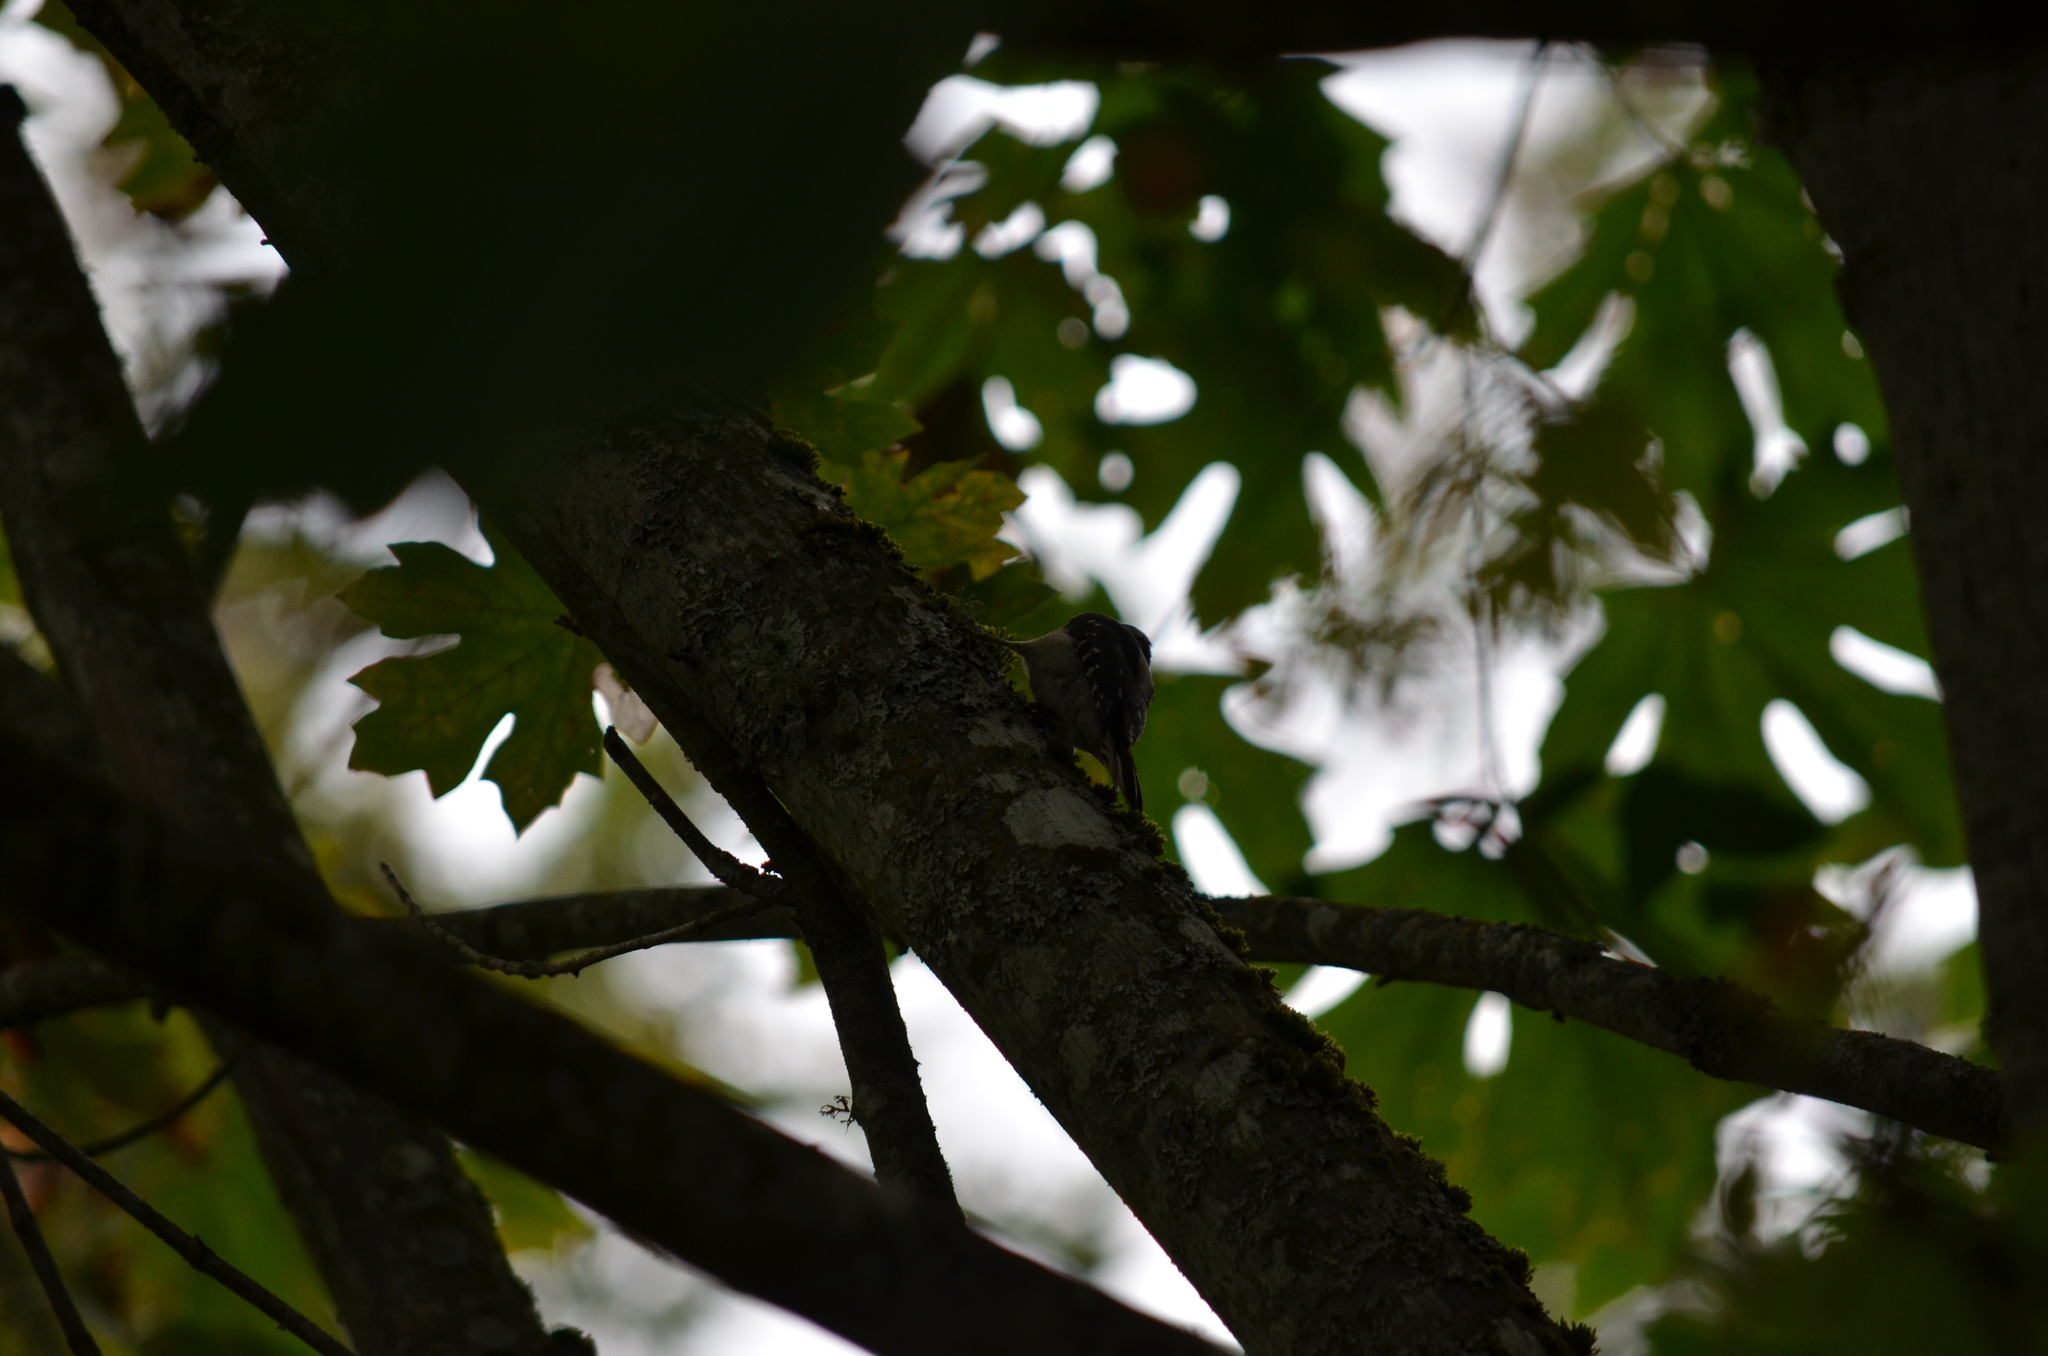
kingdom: Animalia
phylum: Chordata
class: Aves
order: Piciformes
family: Picidae
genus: Dryobates
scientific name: Dryobates pubescens
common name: Downy woodpecker
